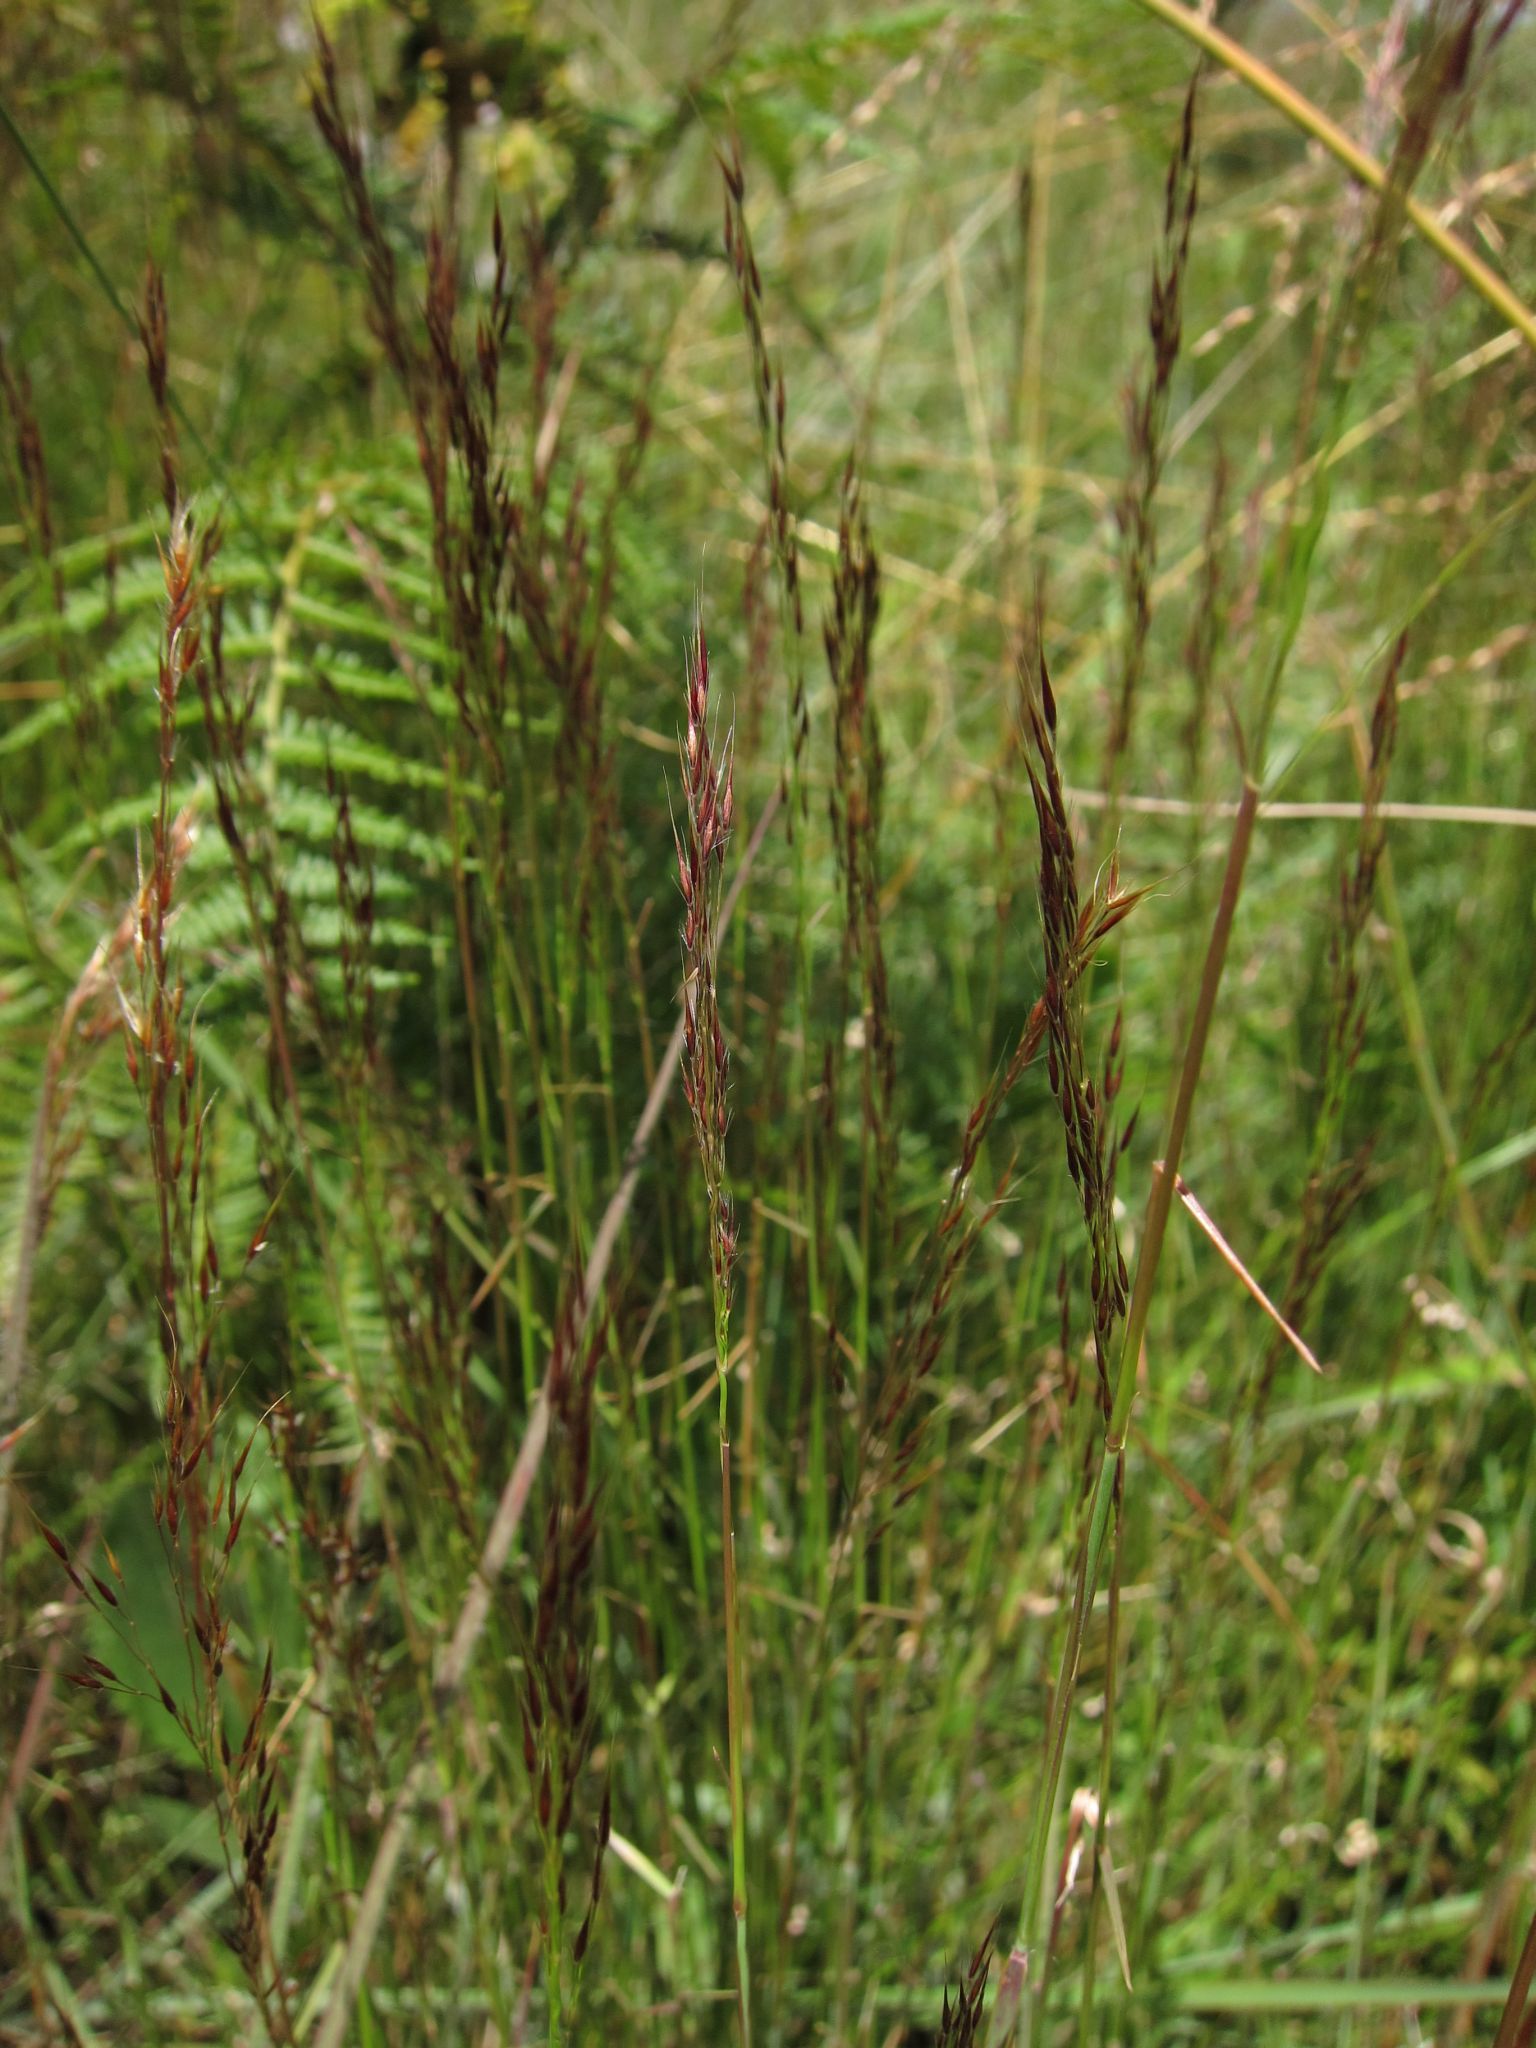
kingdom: Plantae
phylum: Tracheophyta
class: Liliopsida
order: Poales
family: Poaceae
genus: Trichopteryx
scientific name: Trichopteryx dregeana
